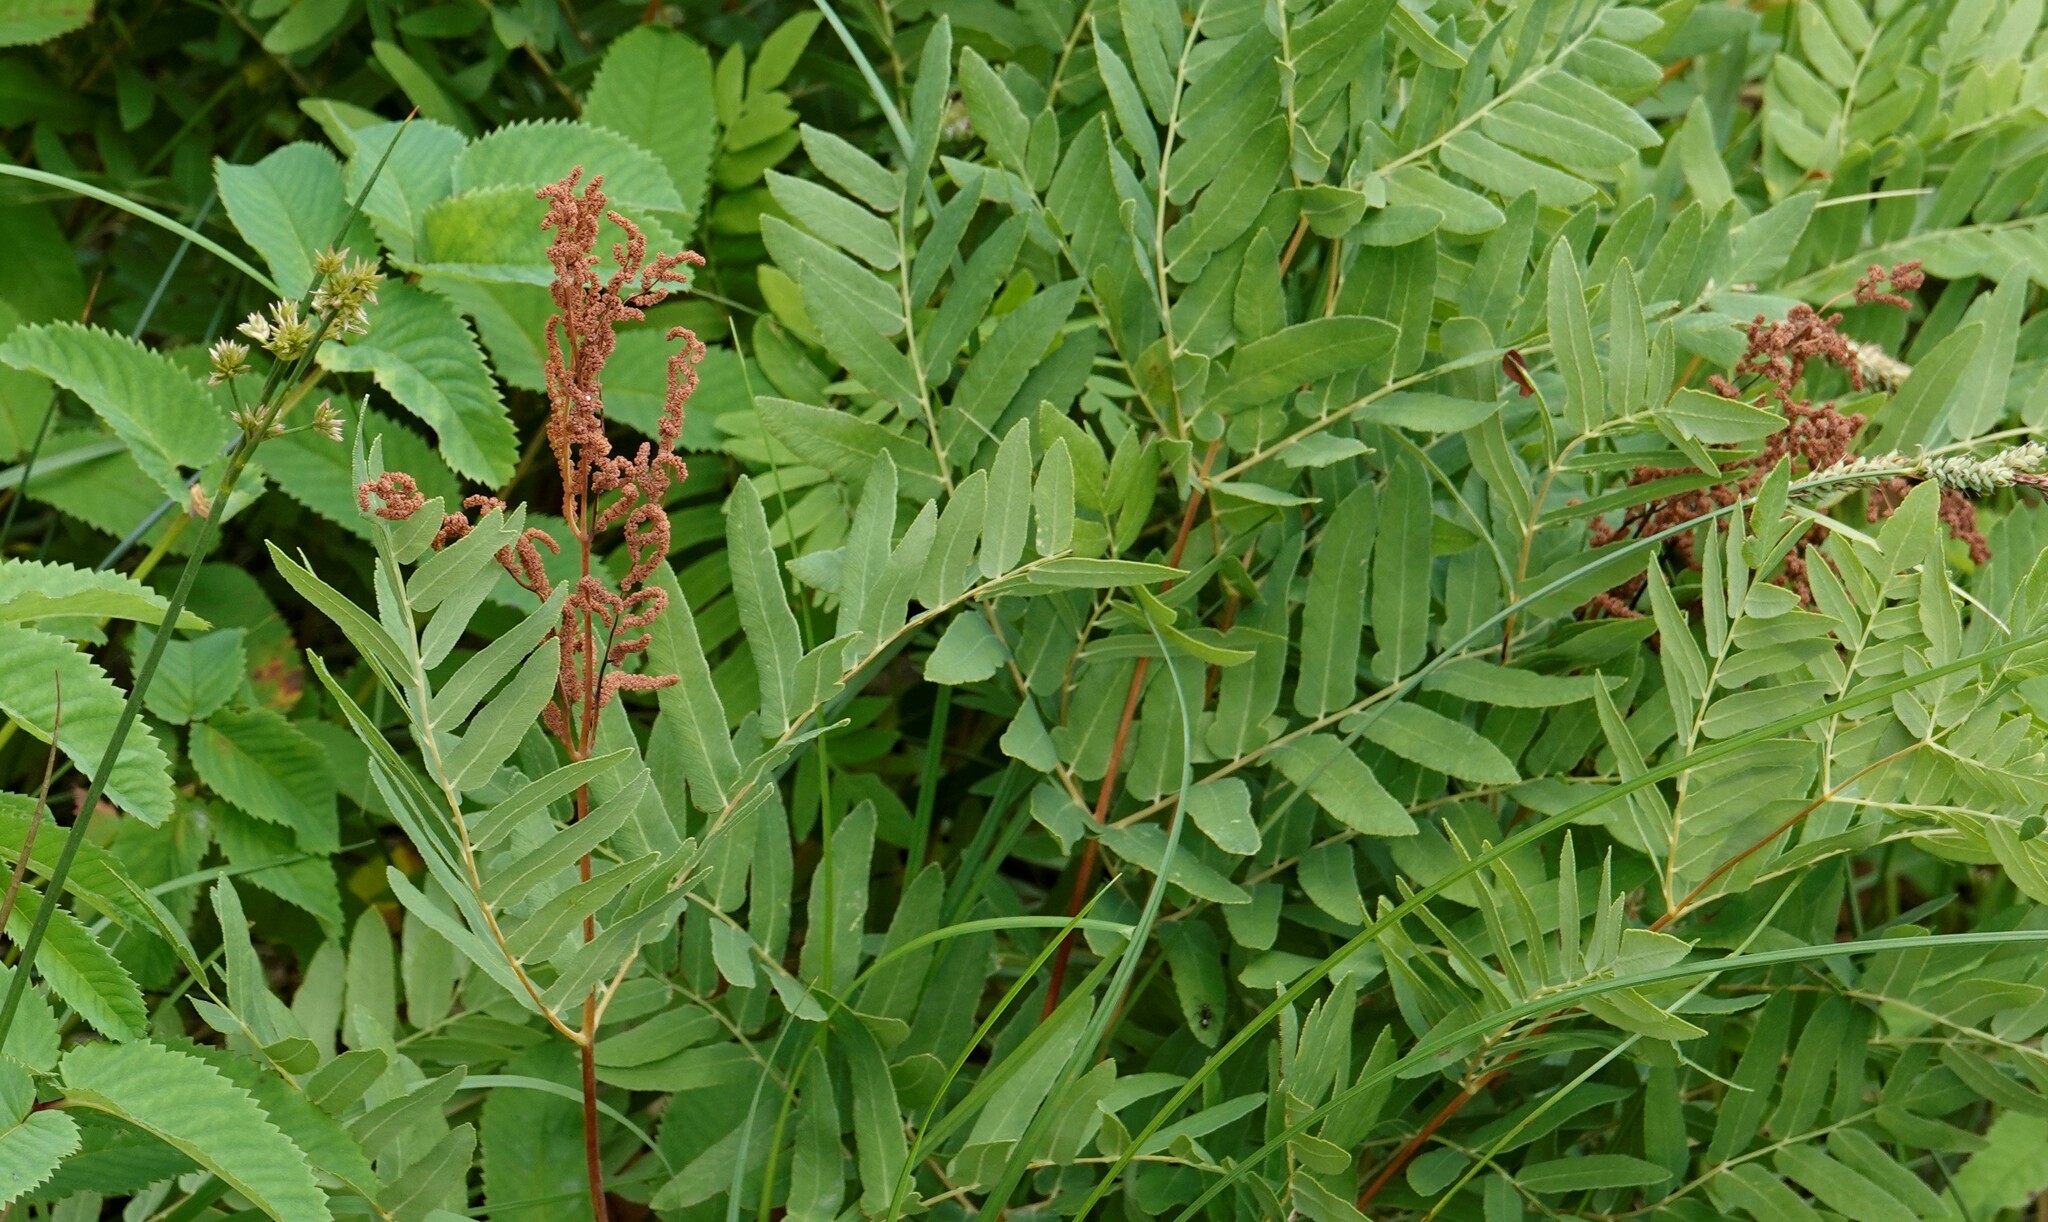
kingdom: Plantae
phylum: Tracheophyta
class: Polypodiopsida
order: Osmundales
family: Osmundaceae
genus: Osmunda
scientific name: Osmunda spectabilis
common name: American royal fern
